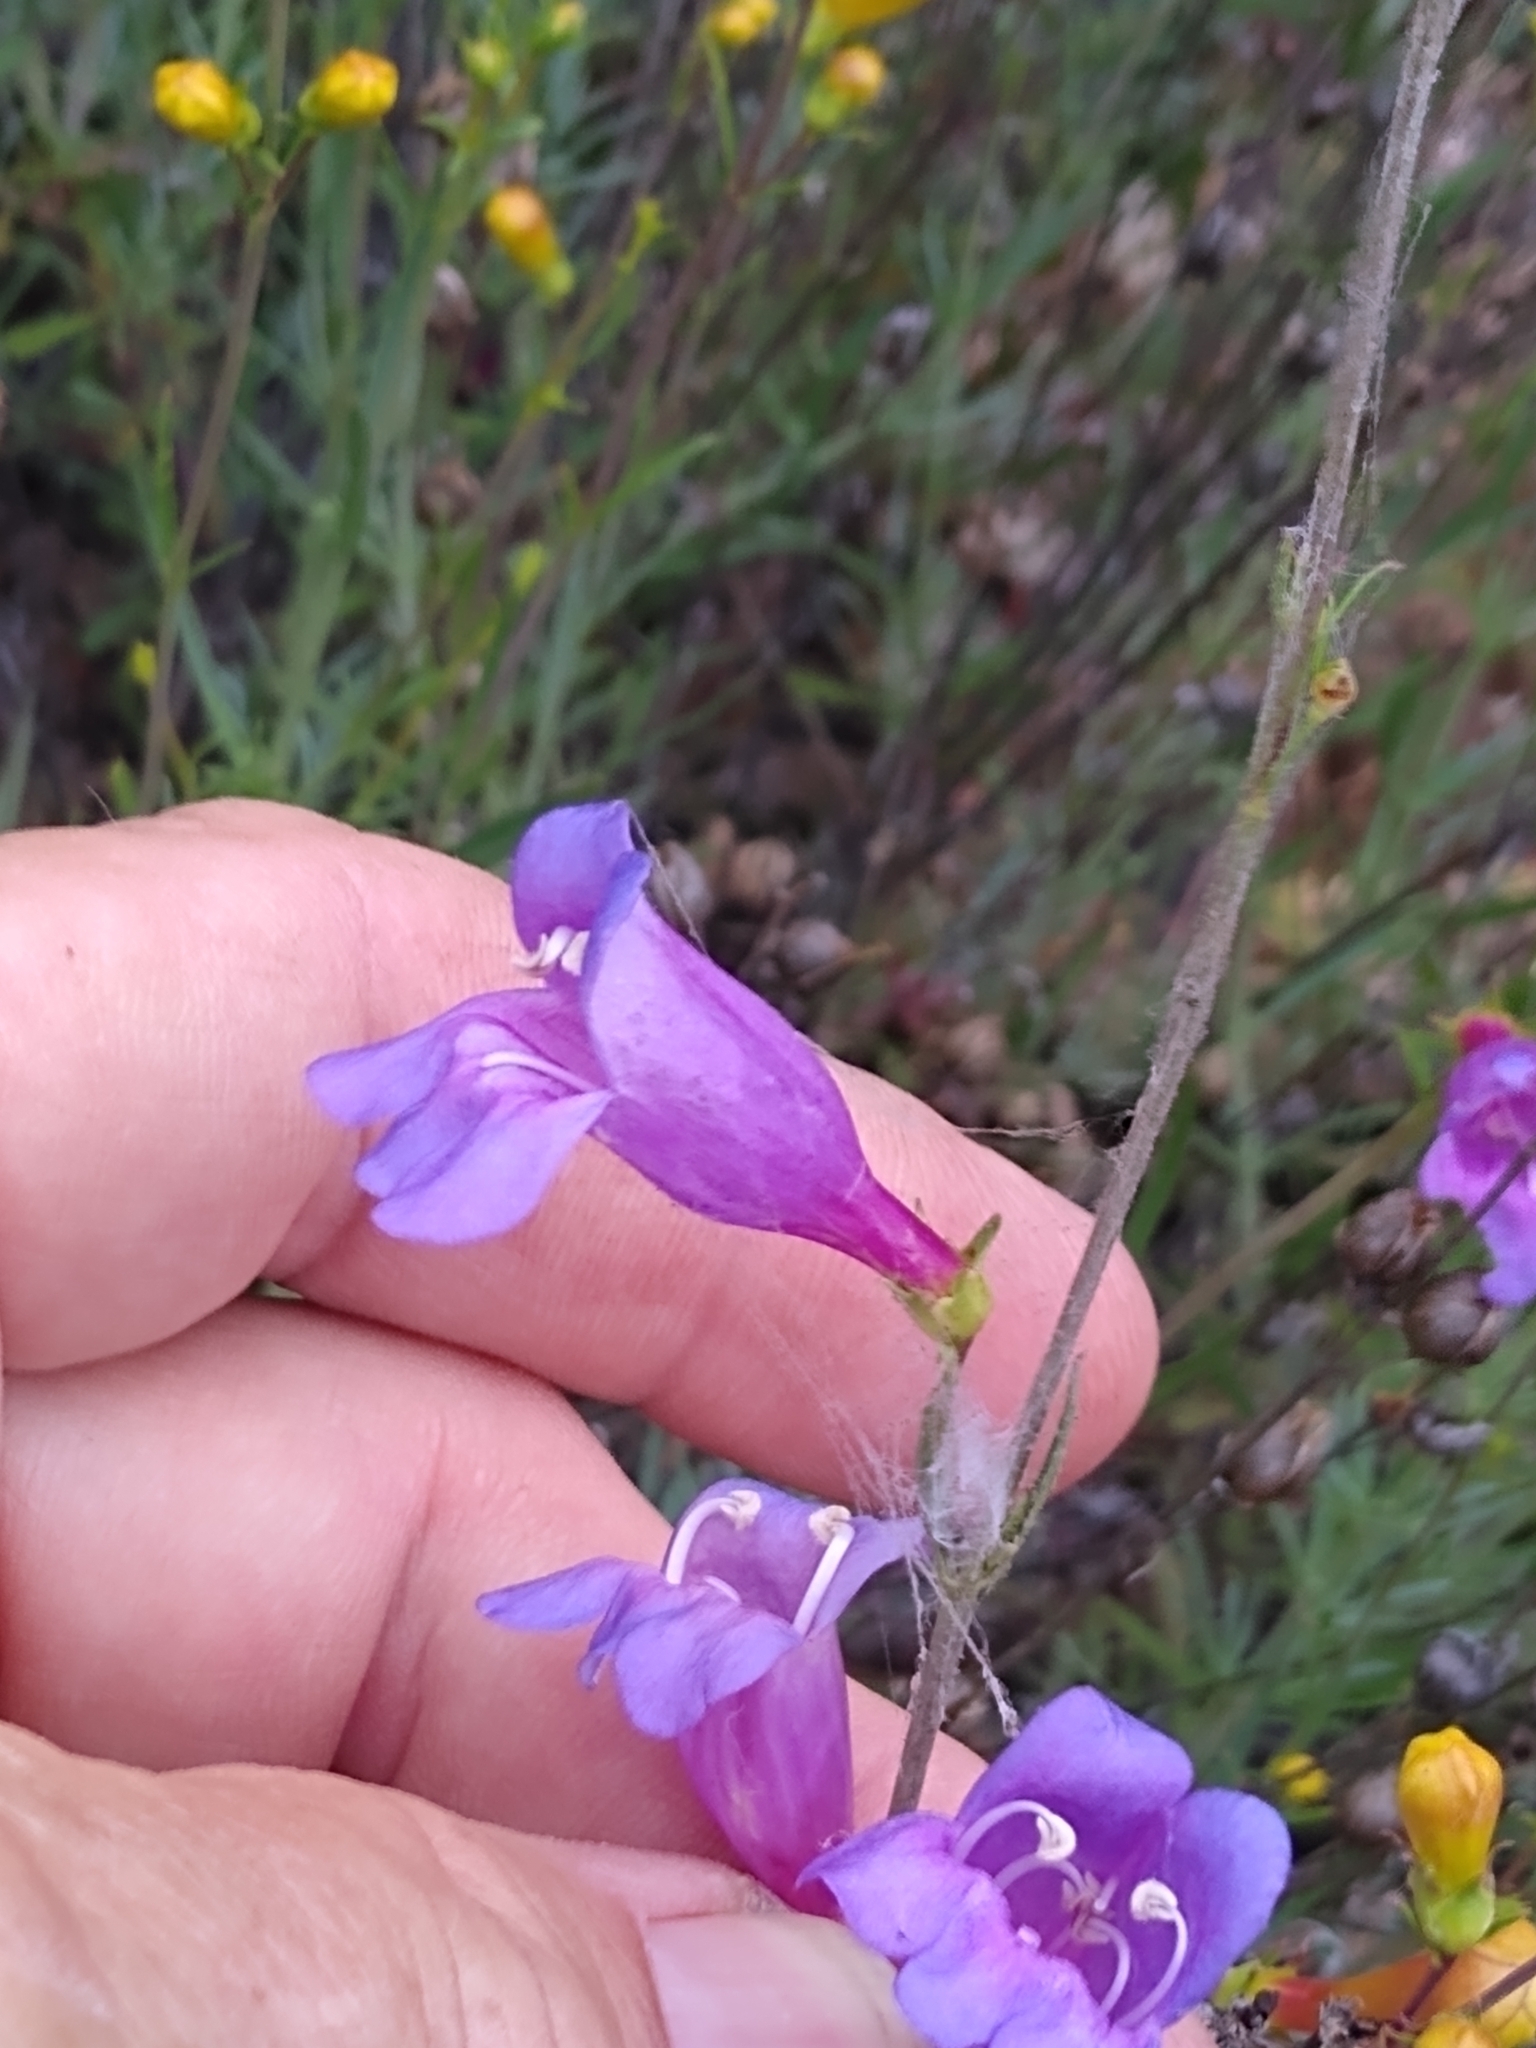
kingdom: Plantae
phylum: Tracheophyta
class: Magnoliopsida
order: Lamiales
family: Plantaginaceae
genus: Penstemon
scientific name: Penstemon heterophyllus
